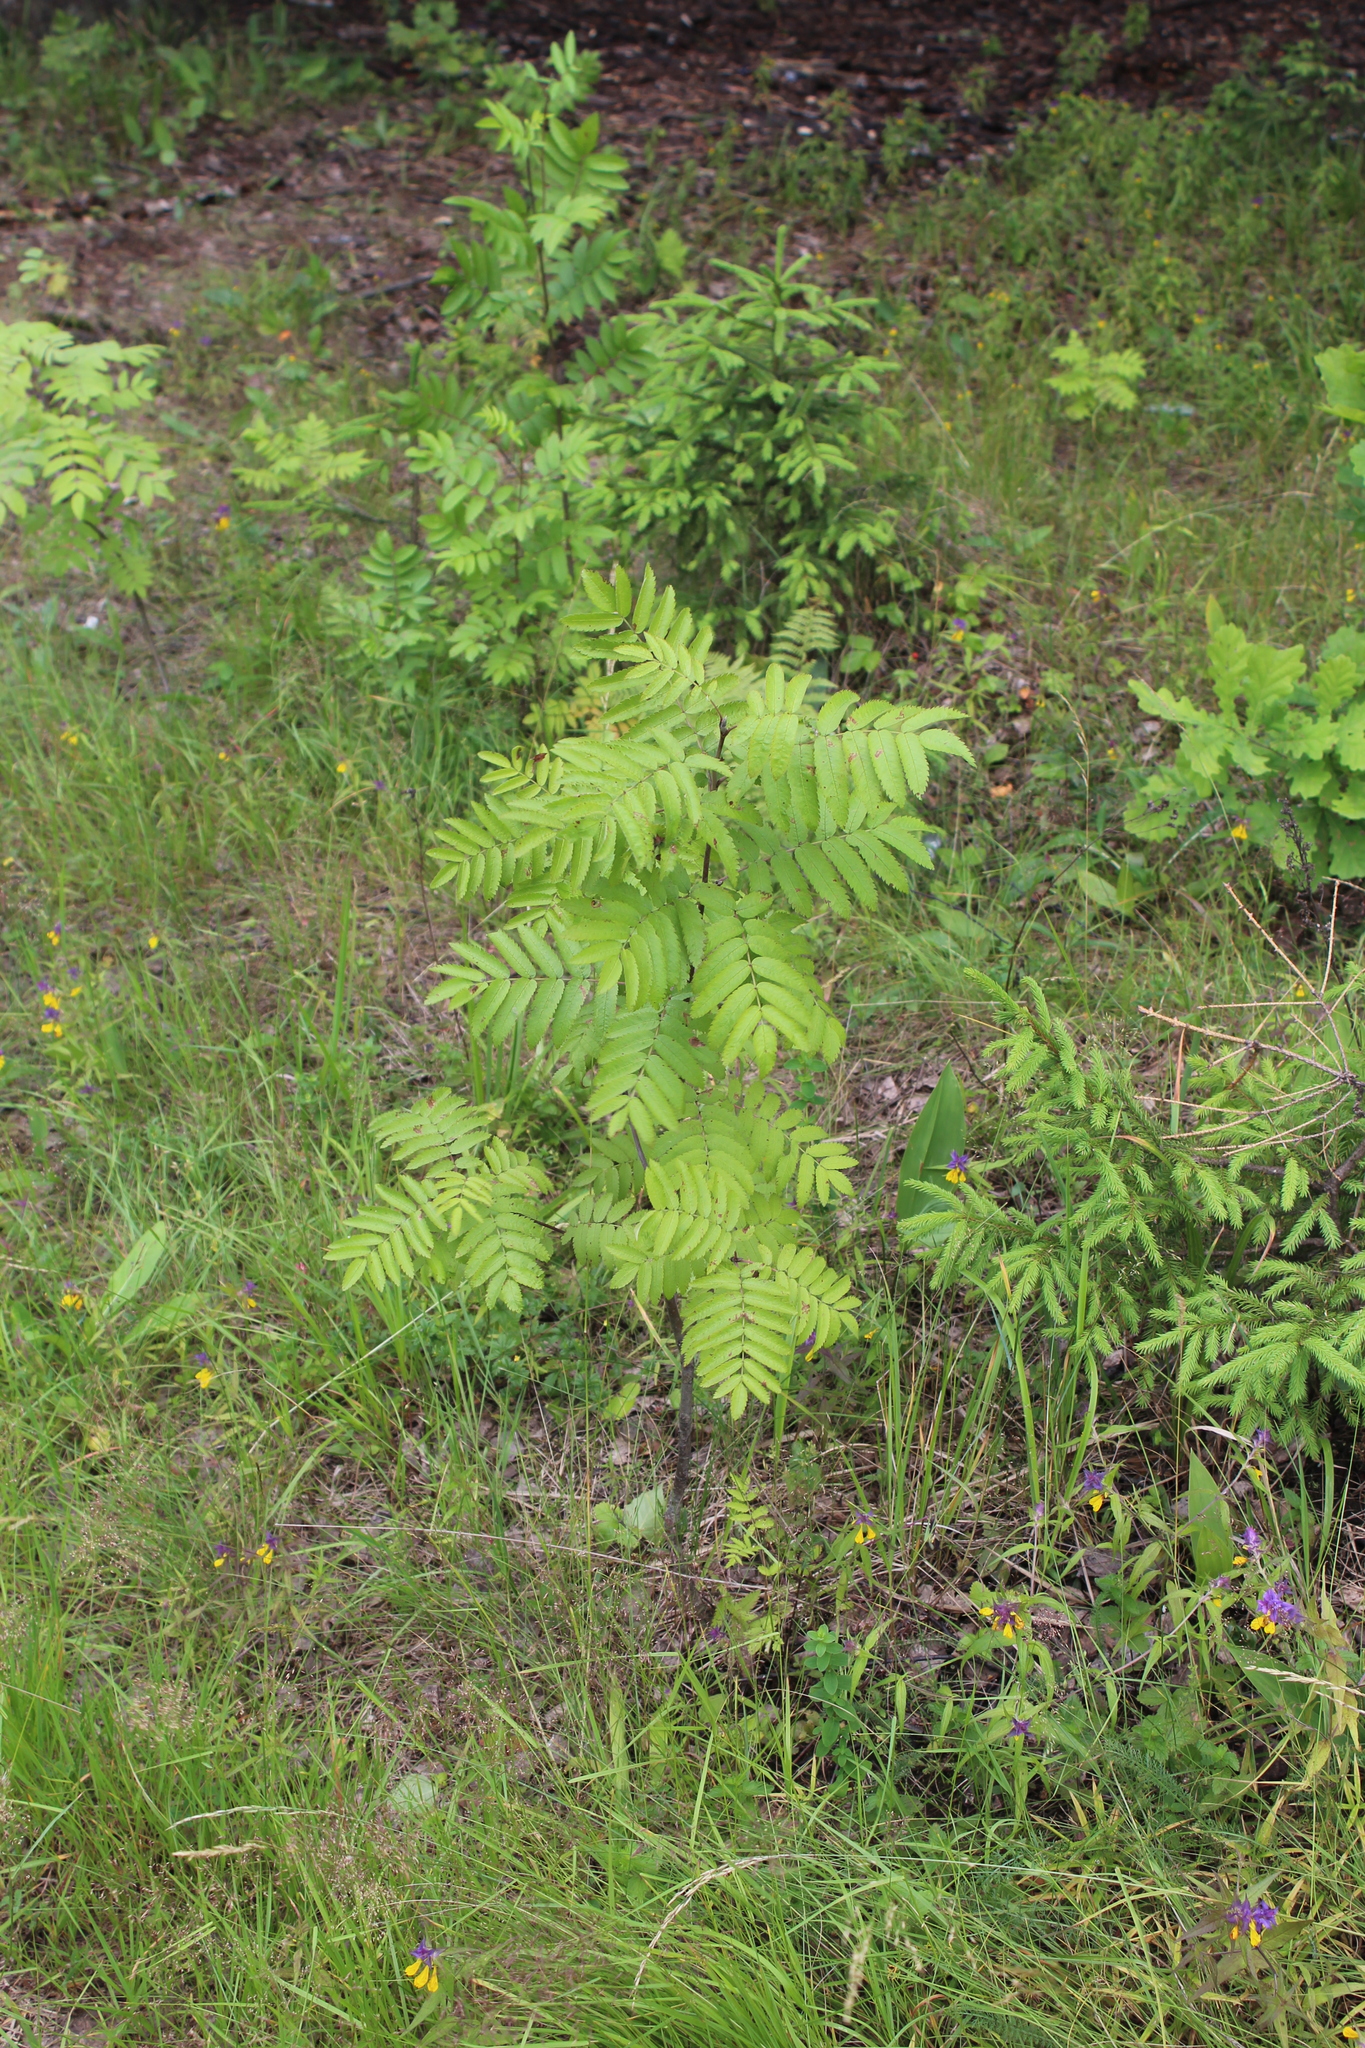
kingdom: Plantae
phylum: Tracheophyta
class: Magnoliopsida
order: Rosales
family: Rosaceae
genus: Sorbus
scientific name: Sorbus aucuparia
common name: Rowan
